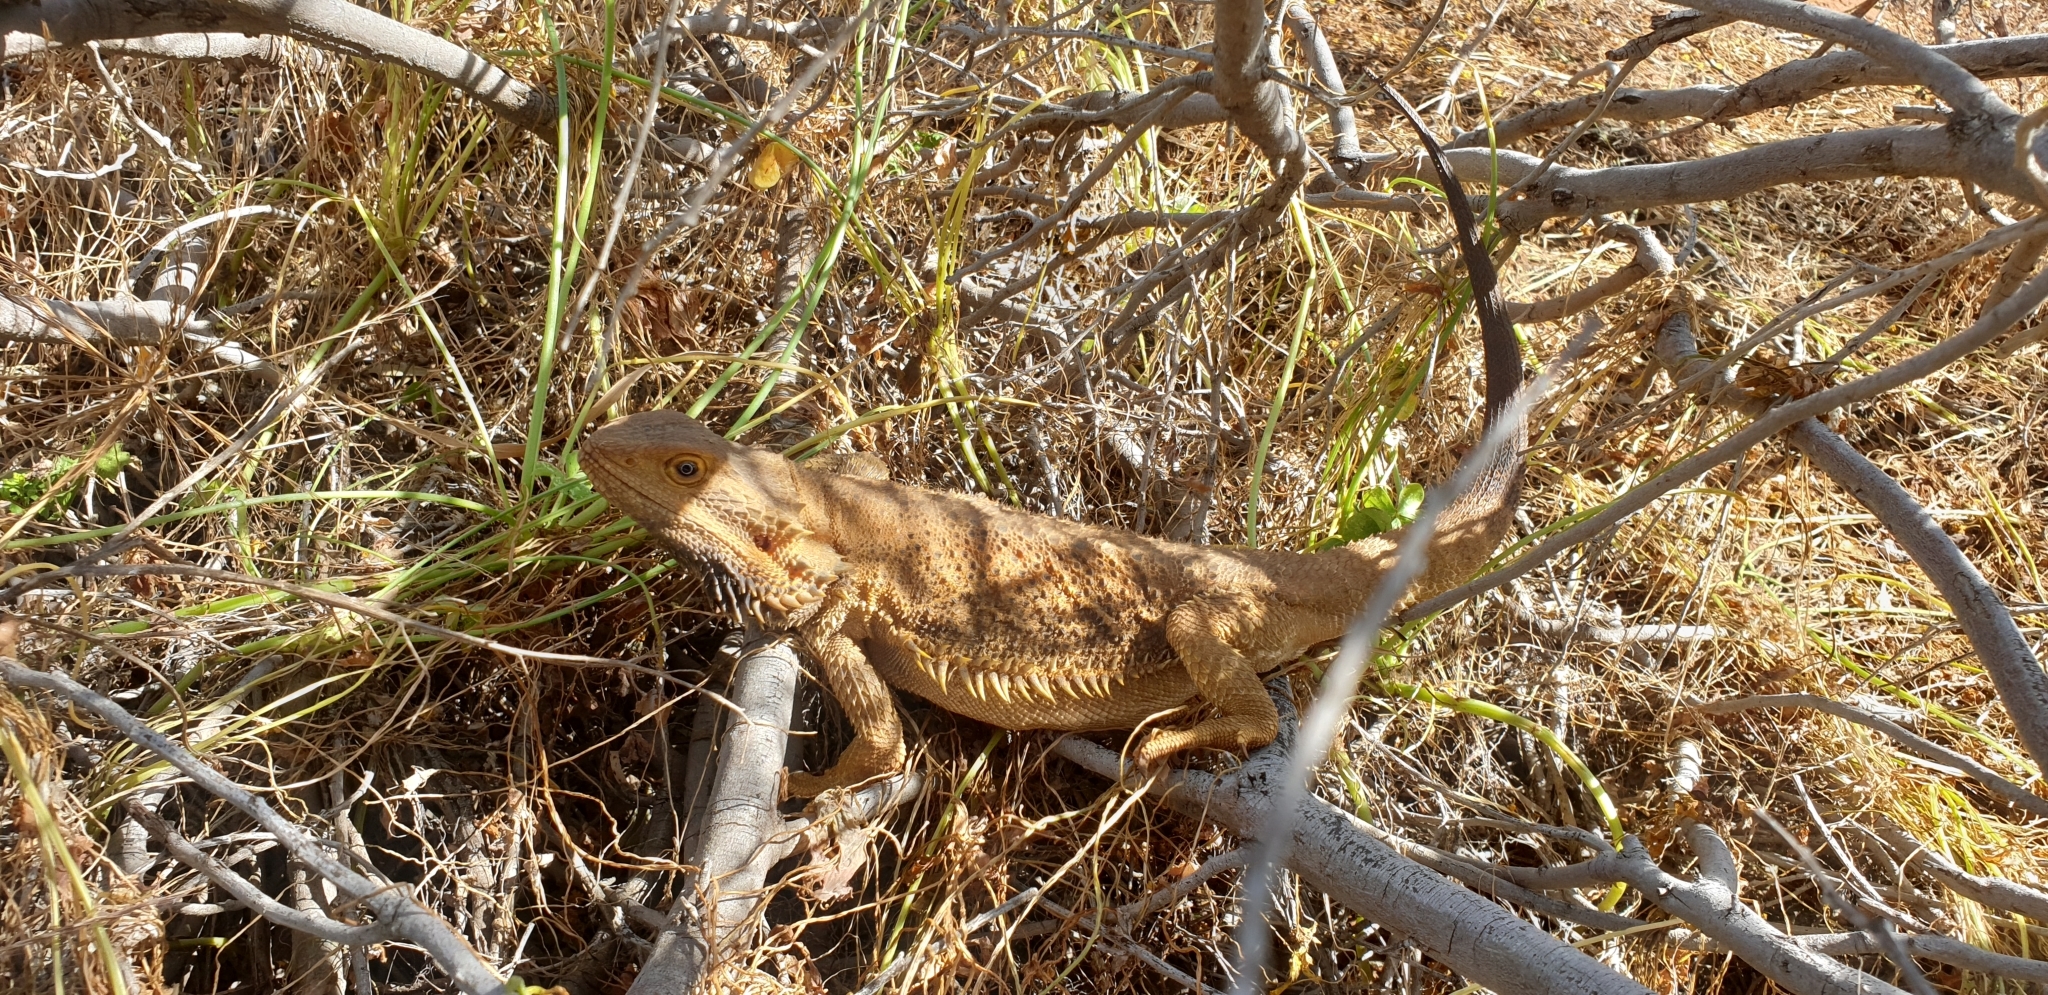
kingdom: Animalia
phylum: Chordata
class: Squamata
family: Agamidae
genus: Pogona
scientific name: Pogona vitticeps
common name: Central bearded dragon
